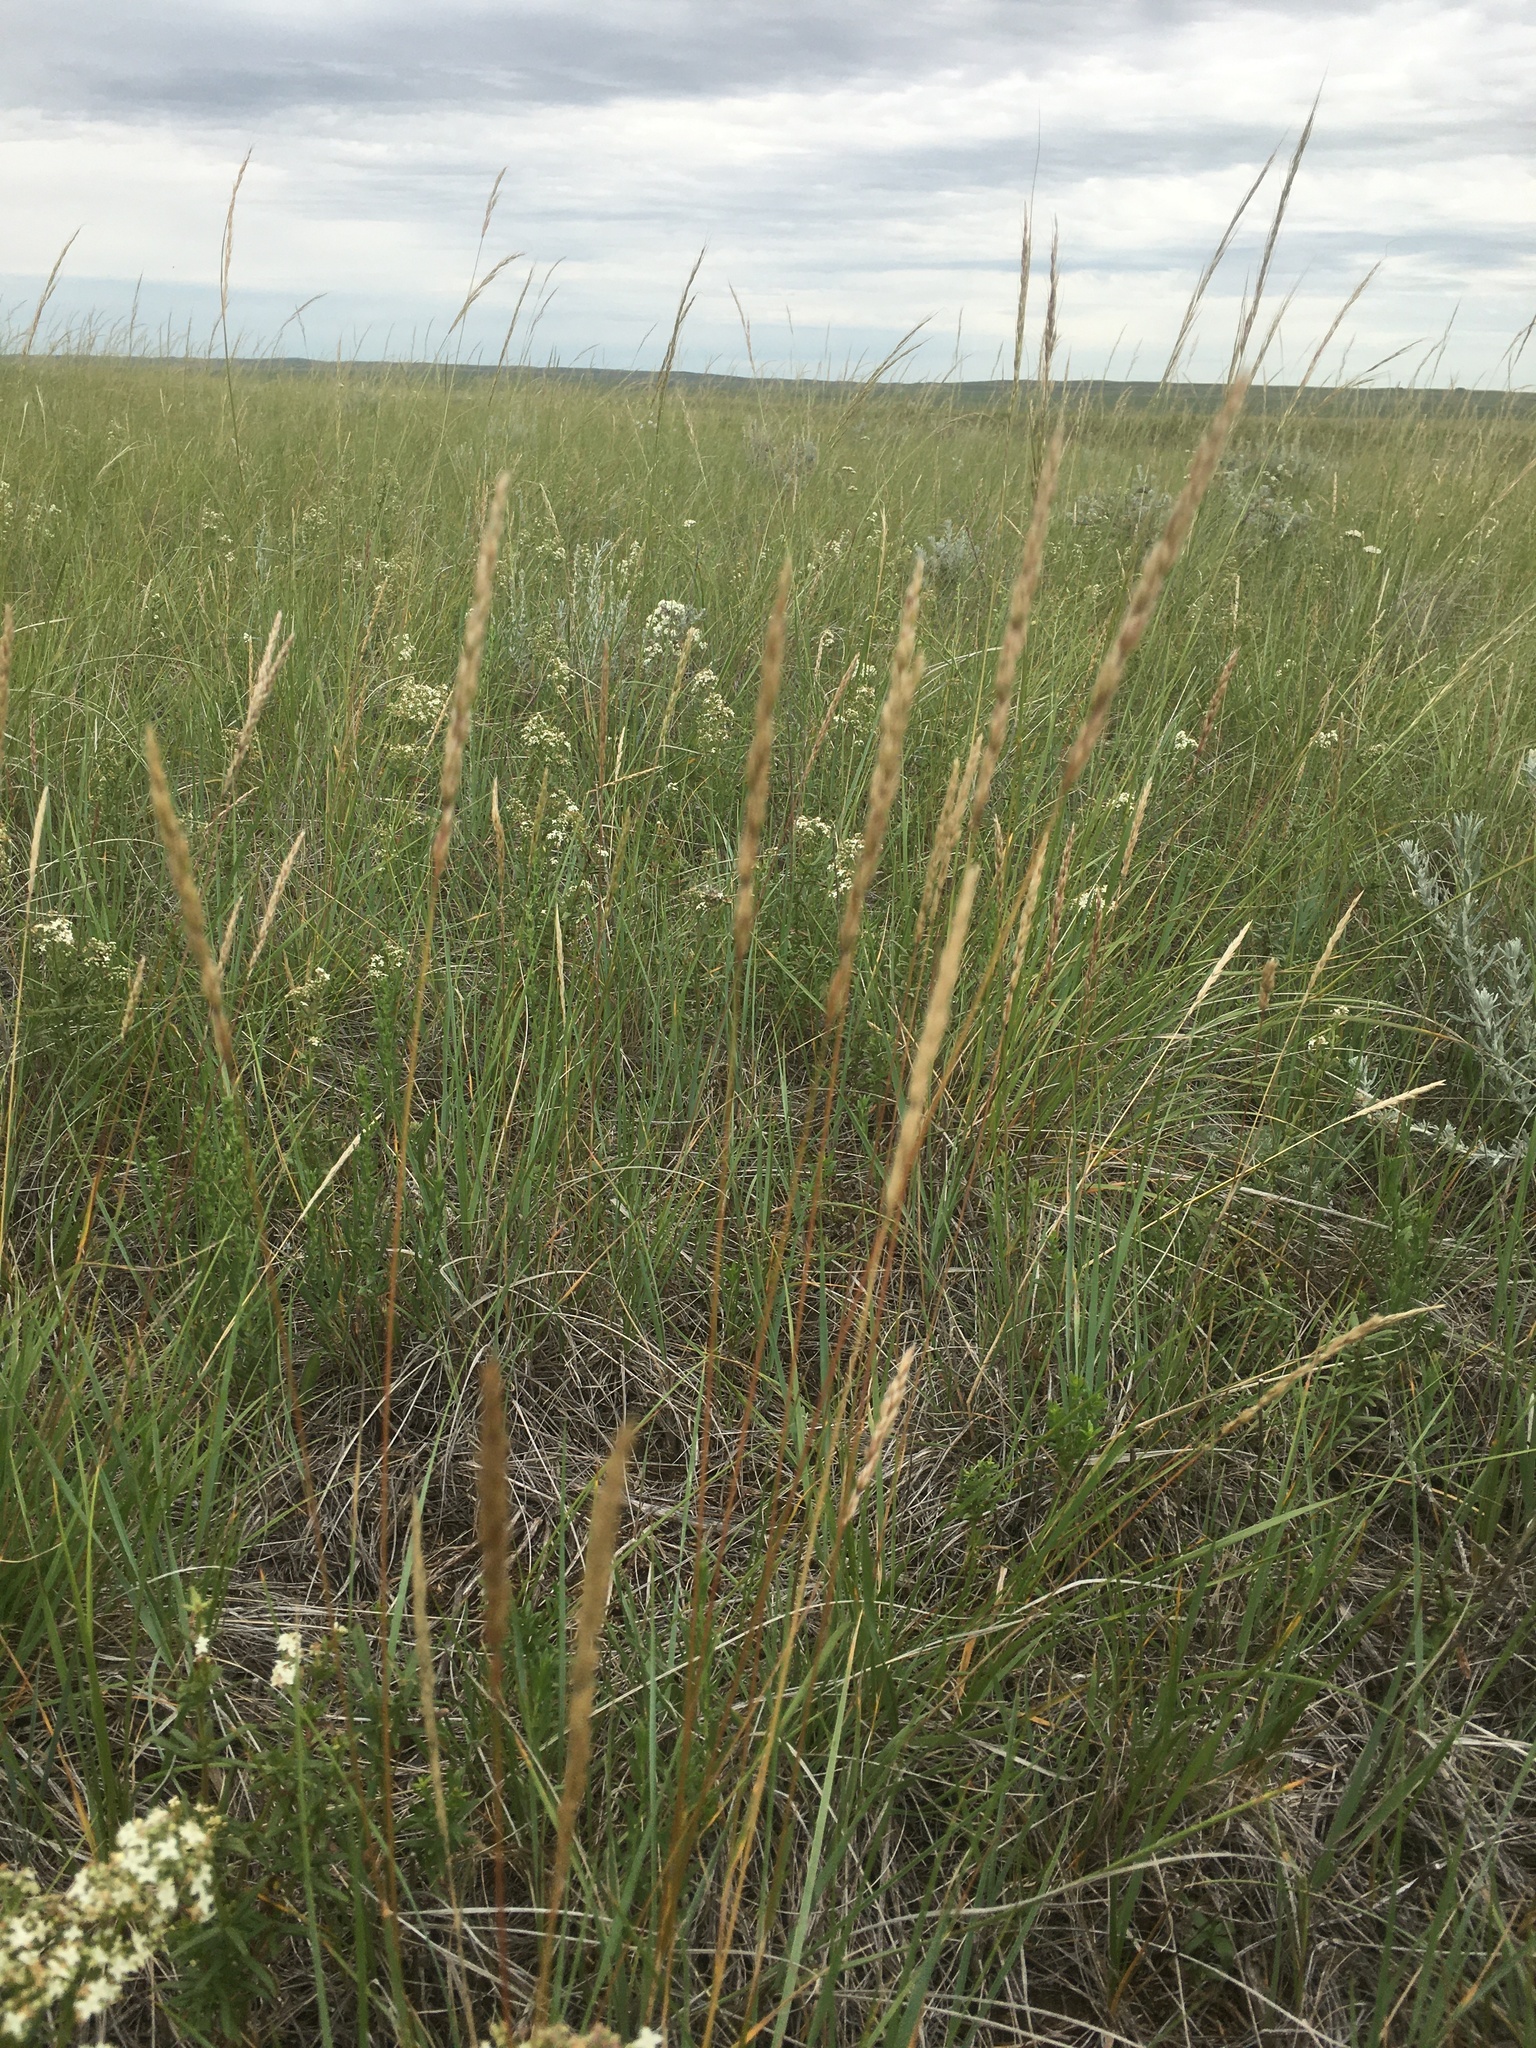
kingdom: Plantae
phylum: Tracheophyta
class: Liliopsida
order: Poales
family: Poaceae
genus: Koeleria
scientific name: Koeleria macrantha
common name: Crested hair-grass
